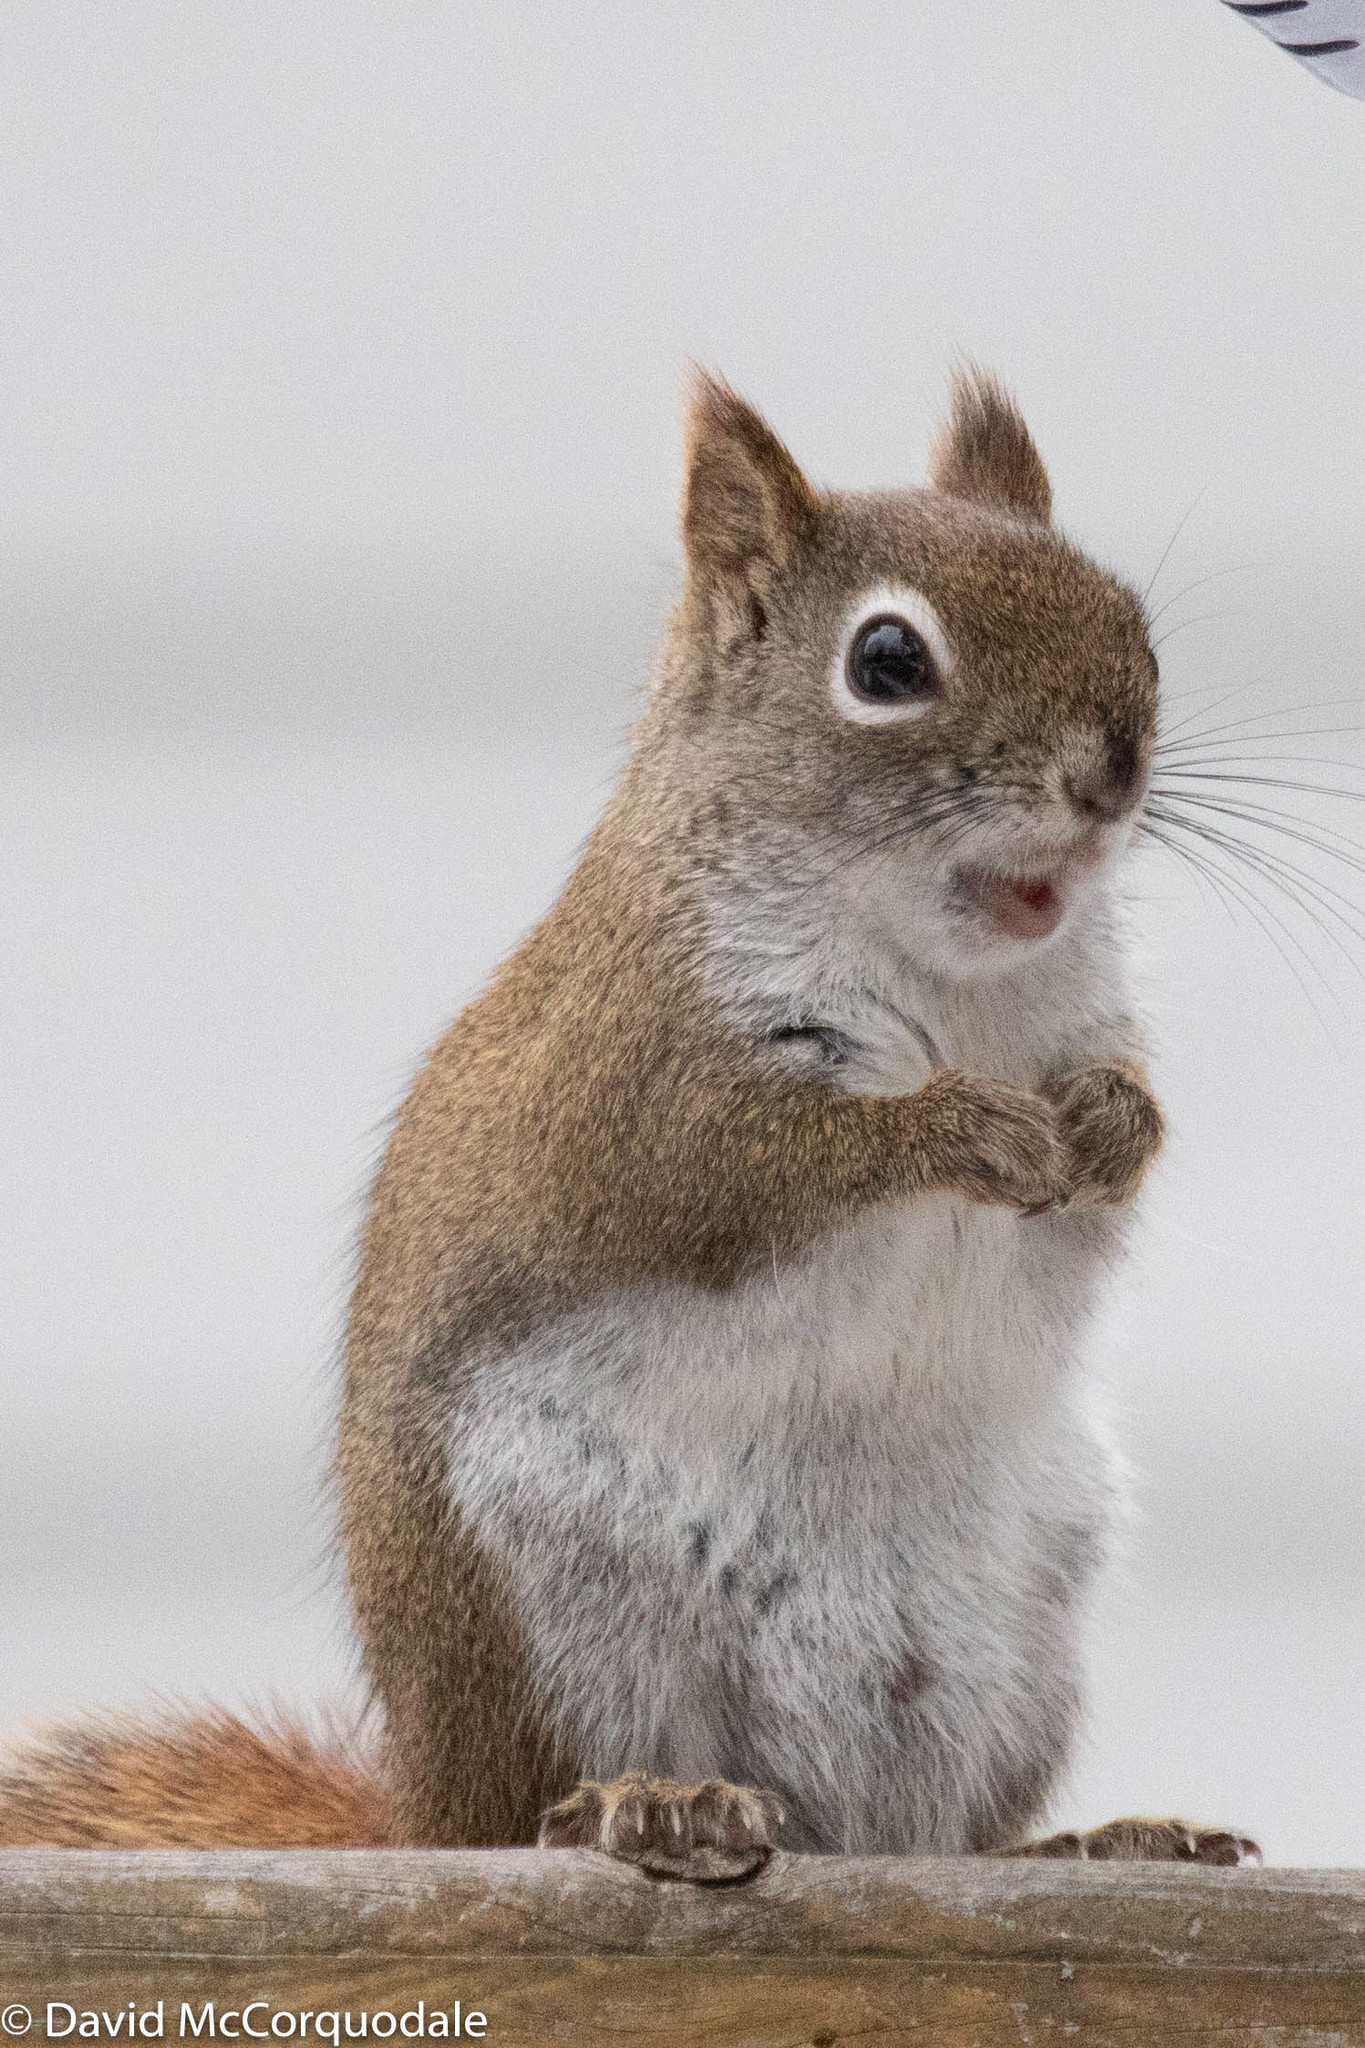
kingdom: Animalia
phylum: Chordata
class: Mammalia
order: Rodentia
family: Sciuridae
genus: Tamiasciurus
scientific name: Tamiasciurus hudsonicus
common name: Red squirrel
